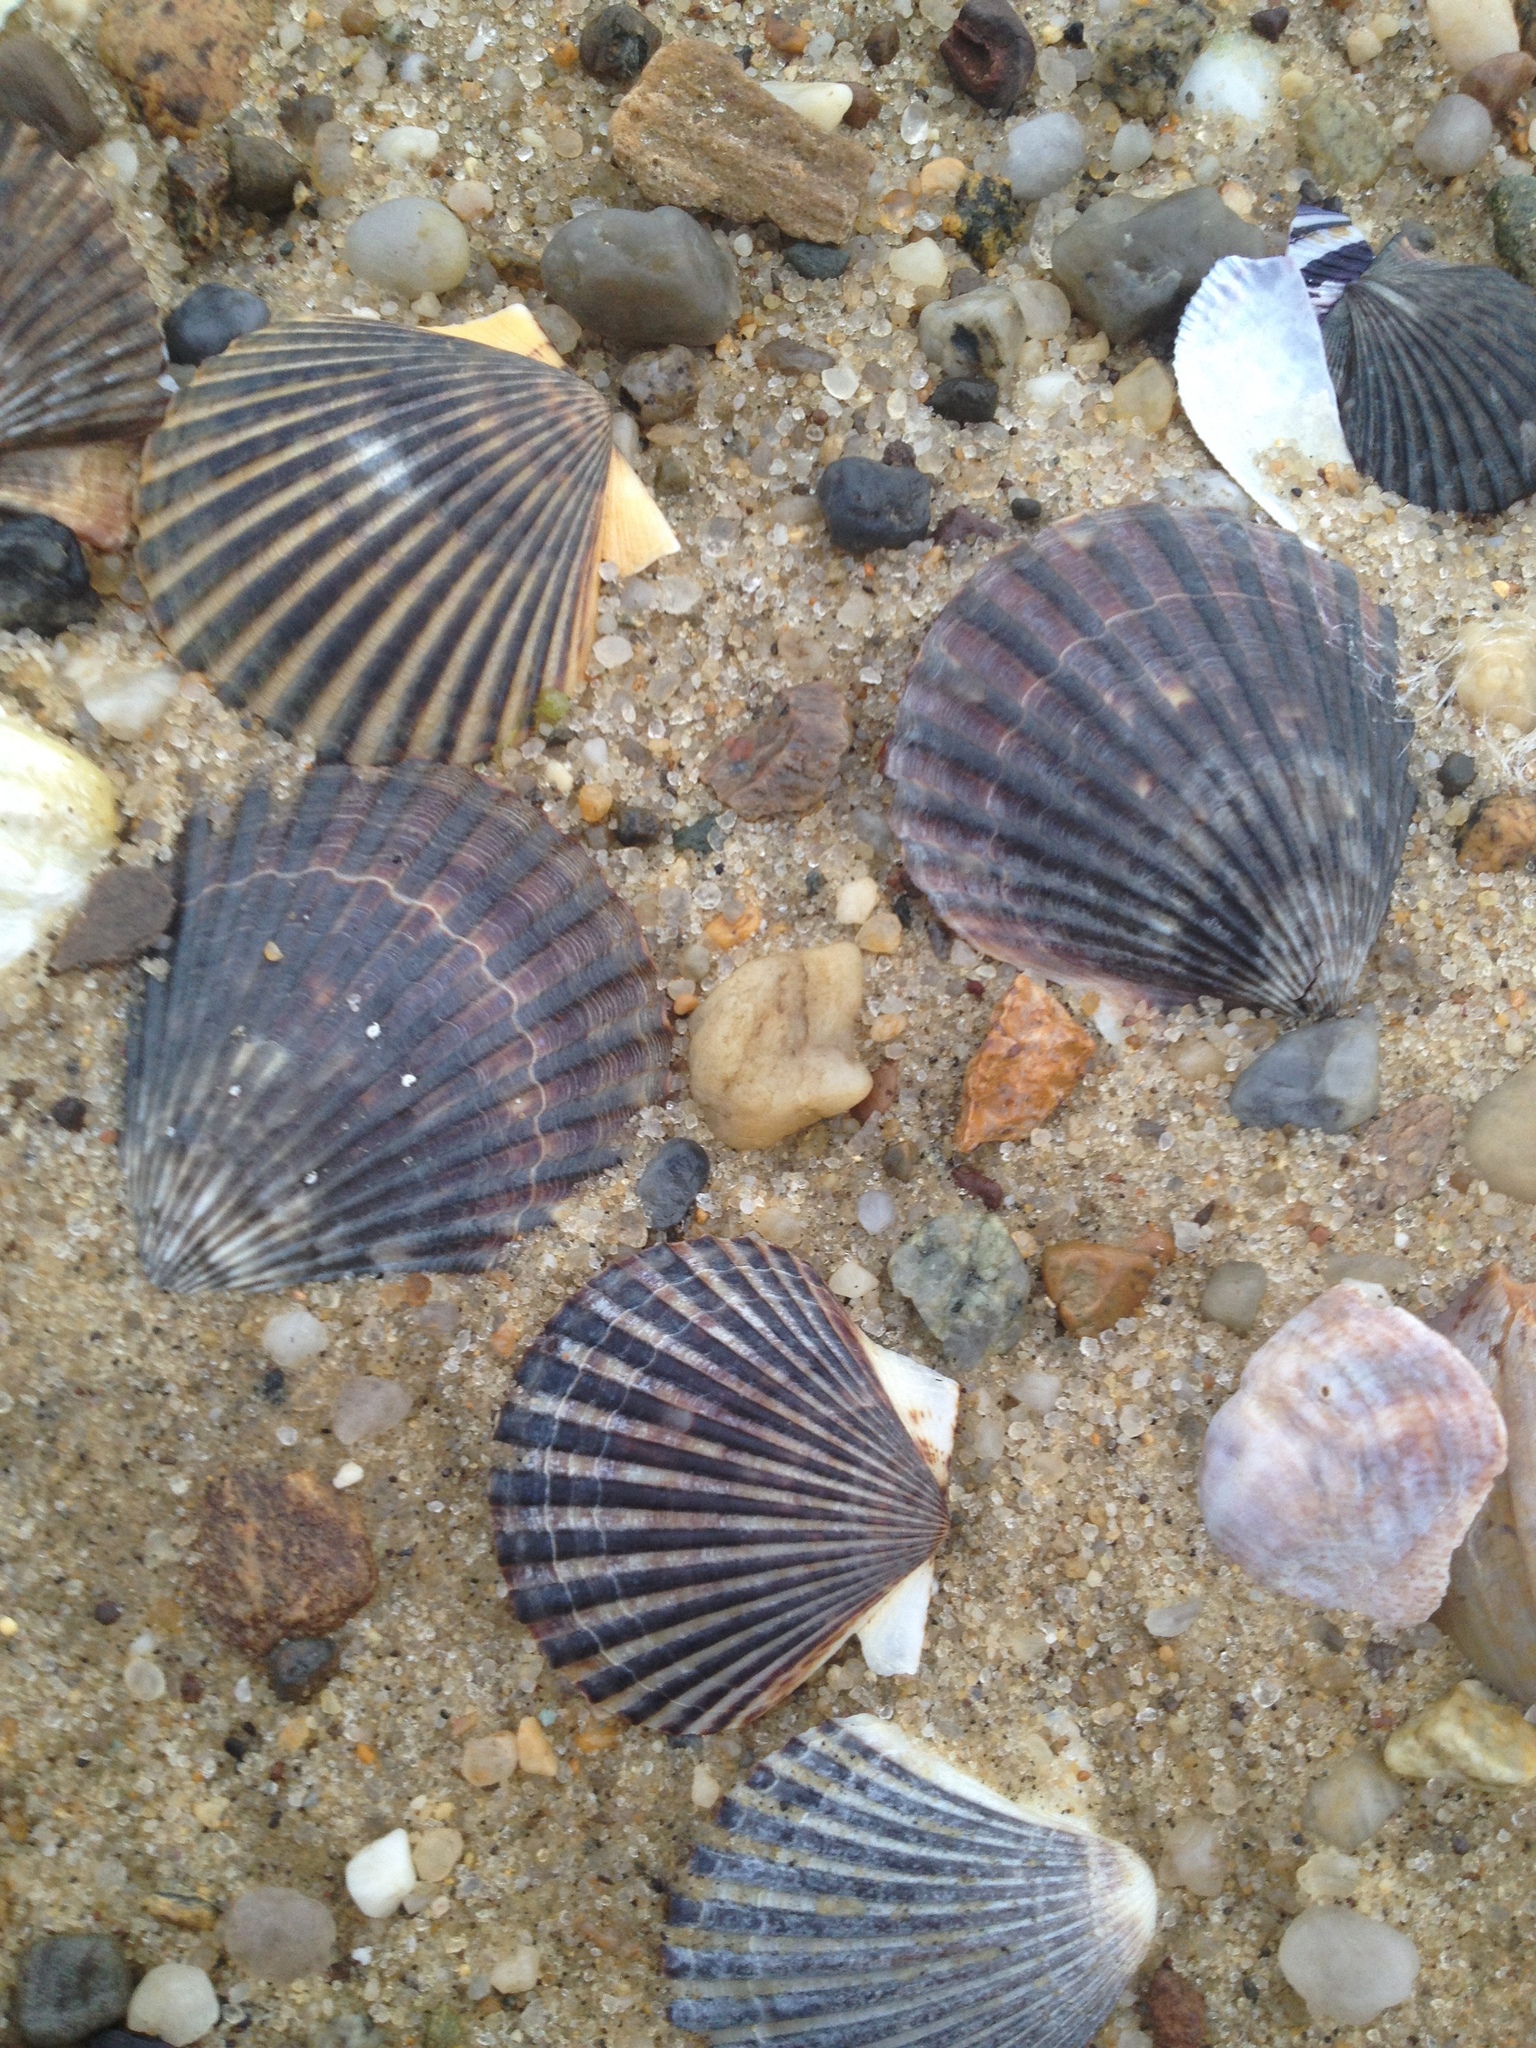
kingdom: Animalia
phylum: Mollusca
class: Bivalvia
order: Pectinida
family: Pectinidae
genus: Argopecten
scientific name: Argopecten irradians
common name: Atlantic bay scallop
